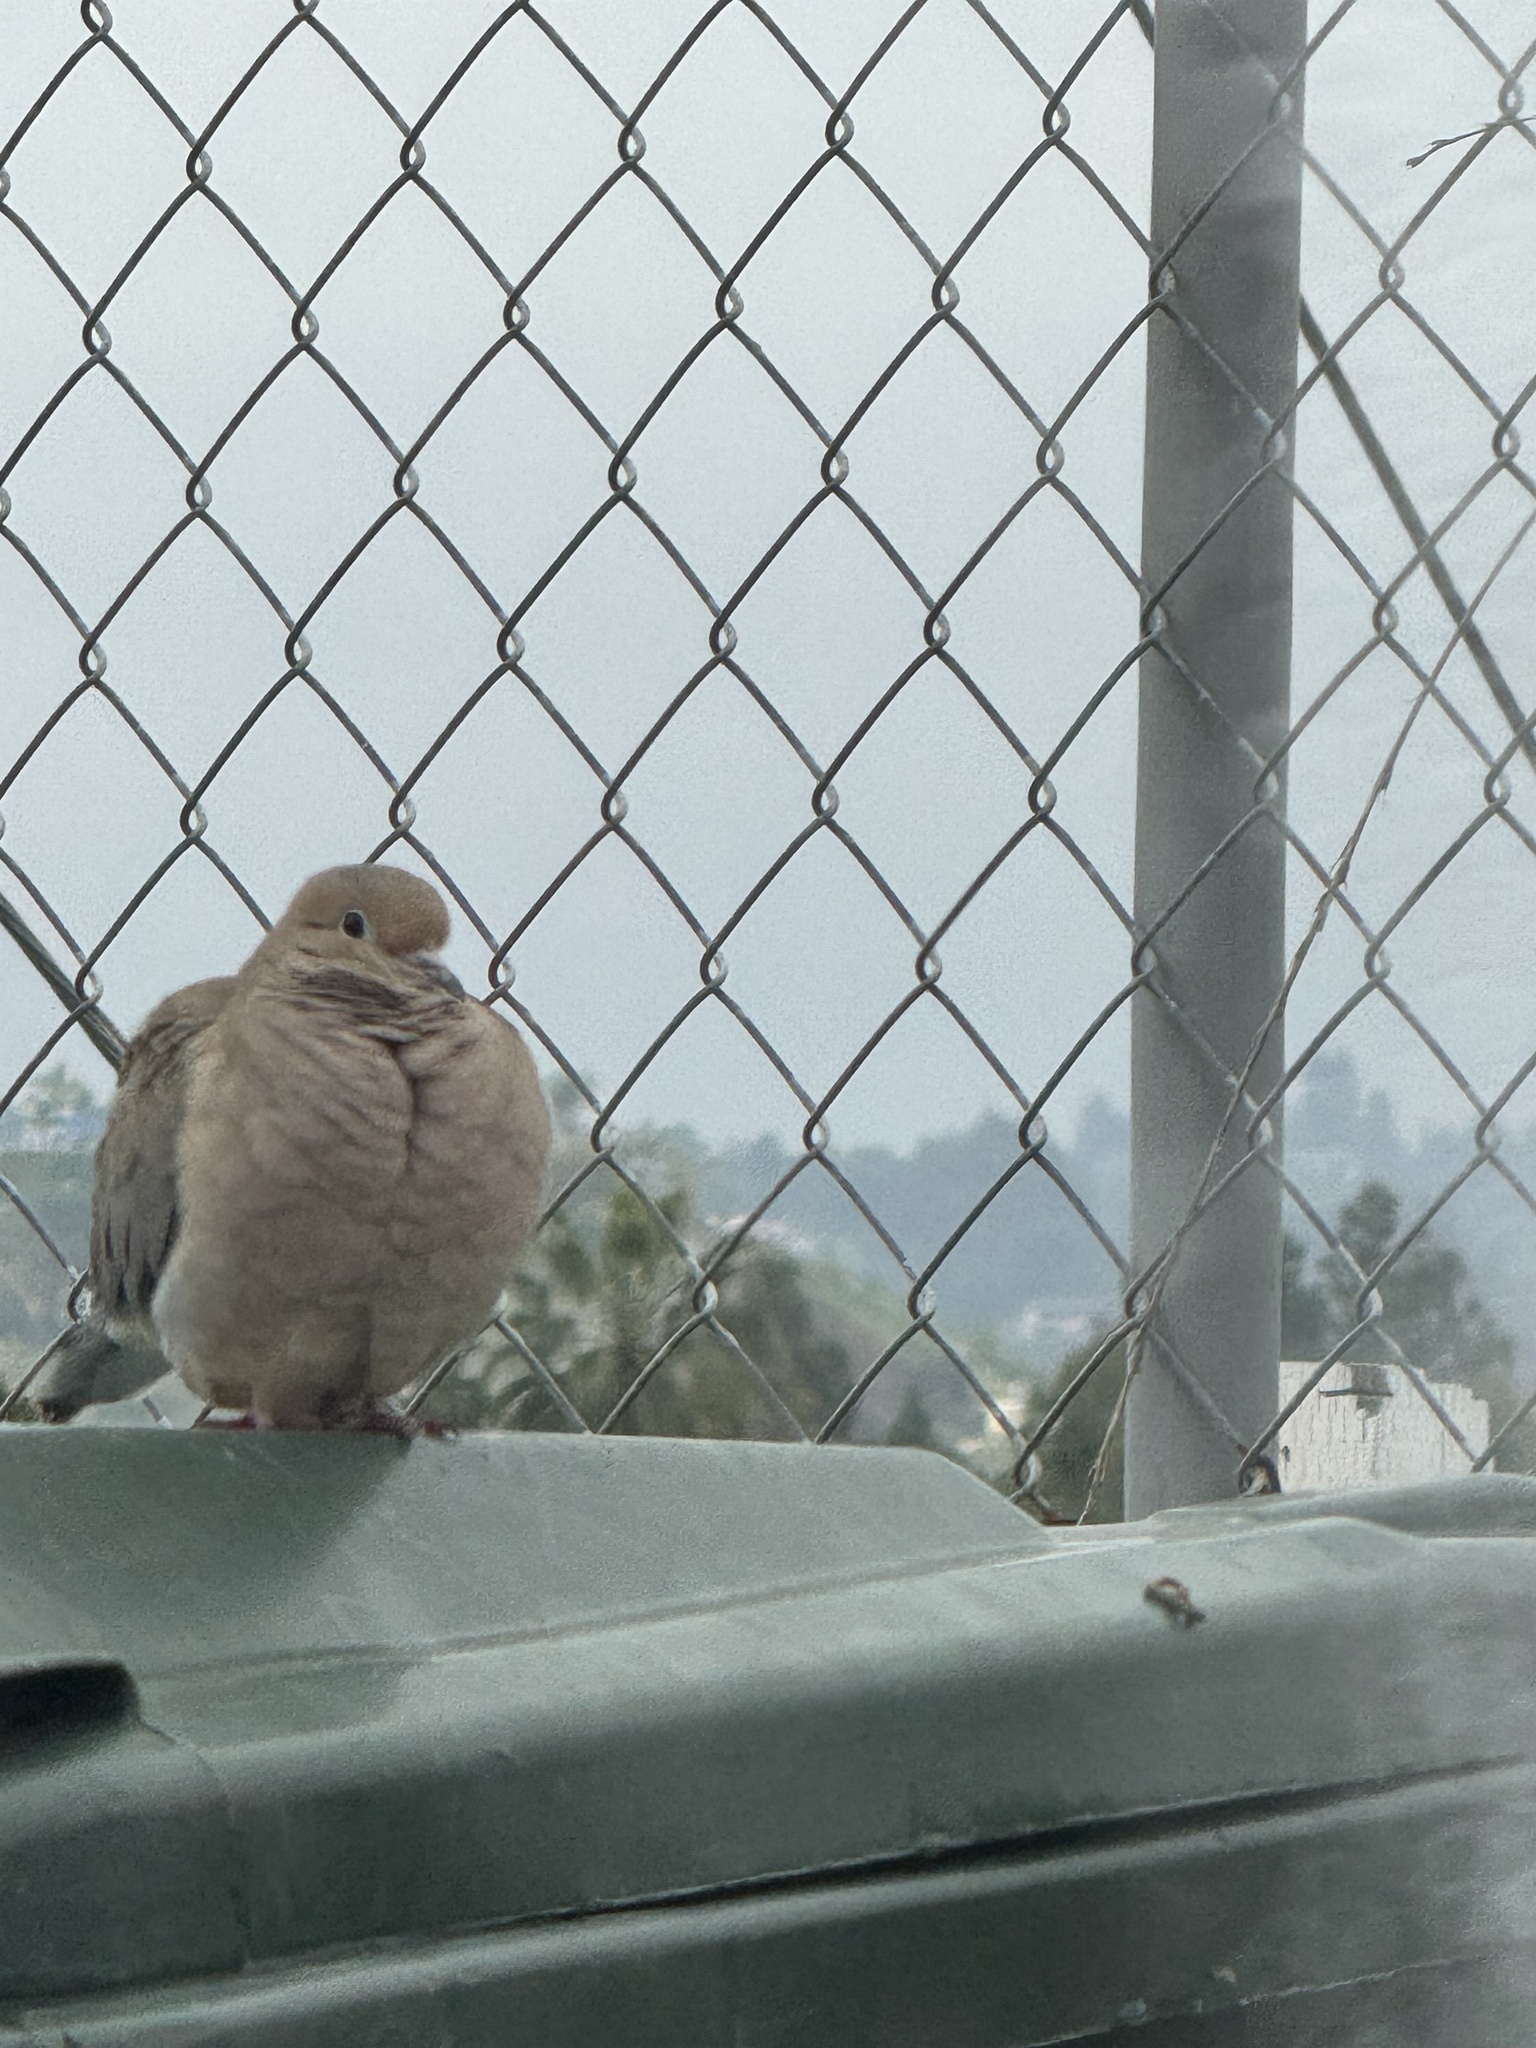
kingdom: Animalia
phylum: Chordata
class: Aves
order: Columbiformes
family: Columbidae
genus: Zenaida
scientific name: Zenaida macroura
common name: Mourning dove
